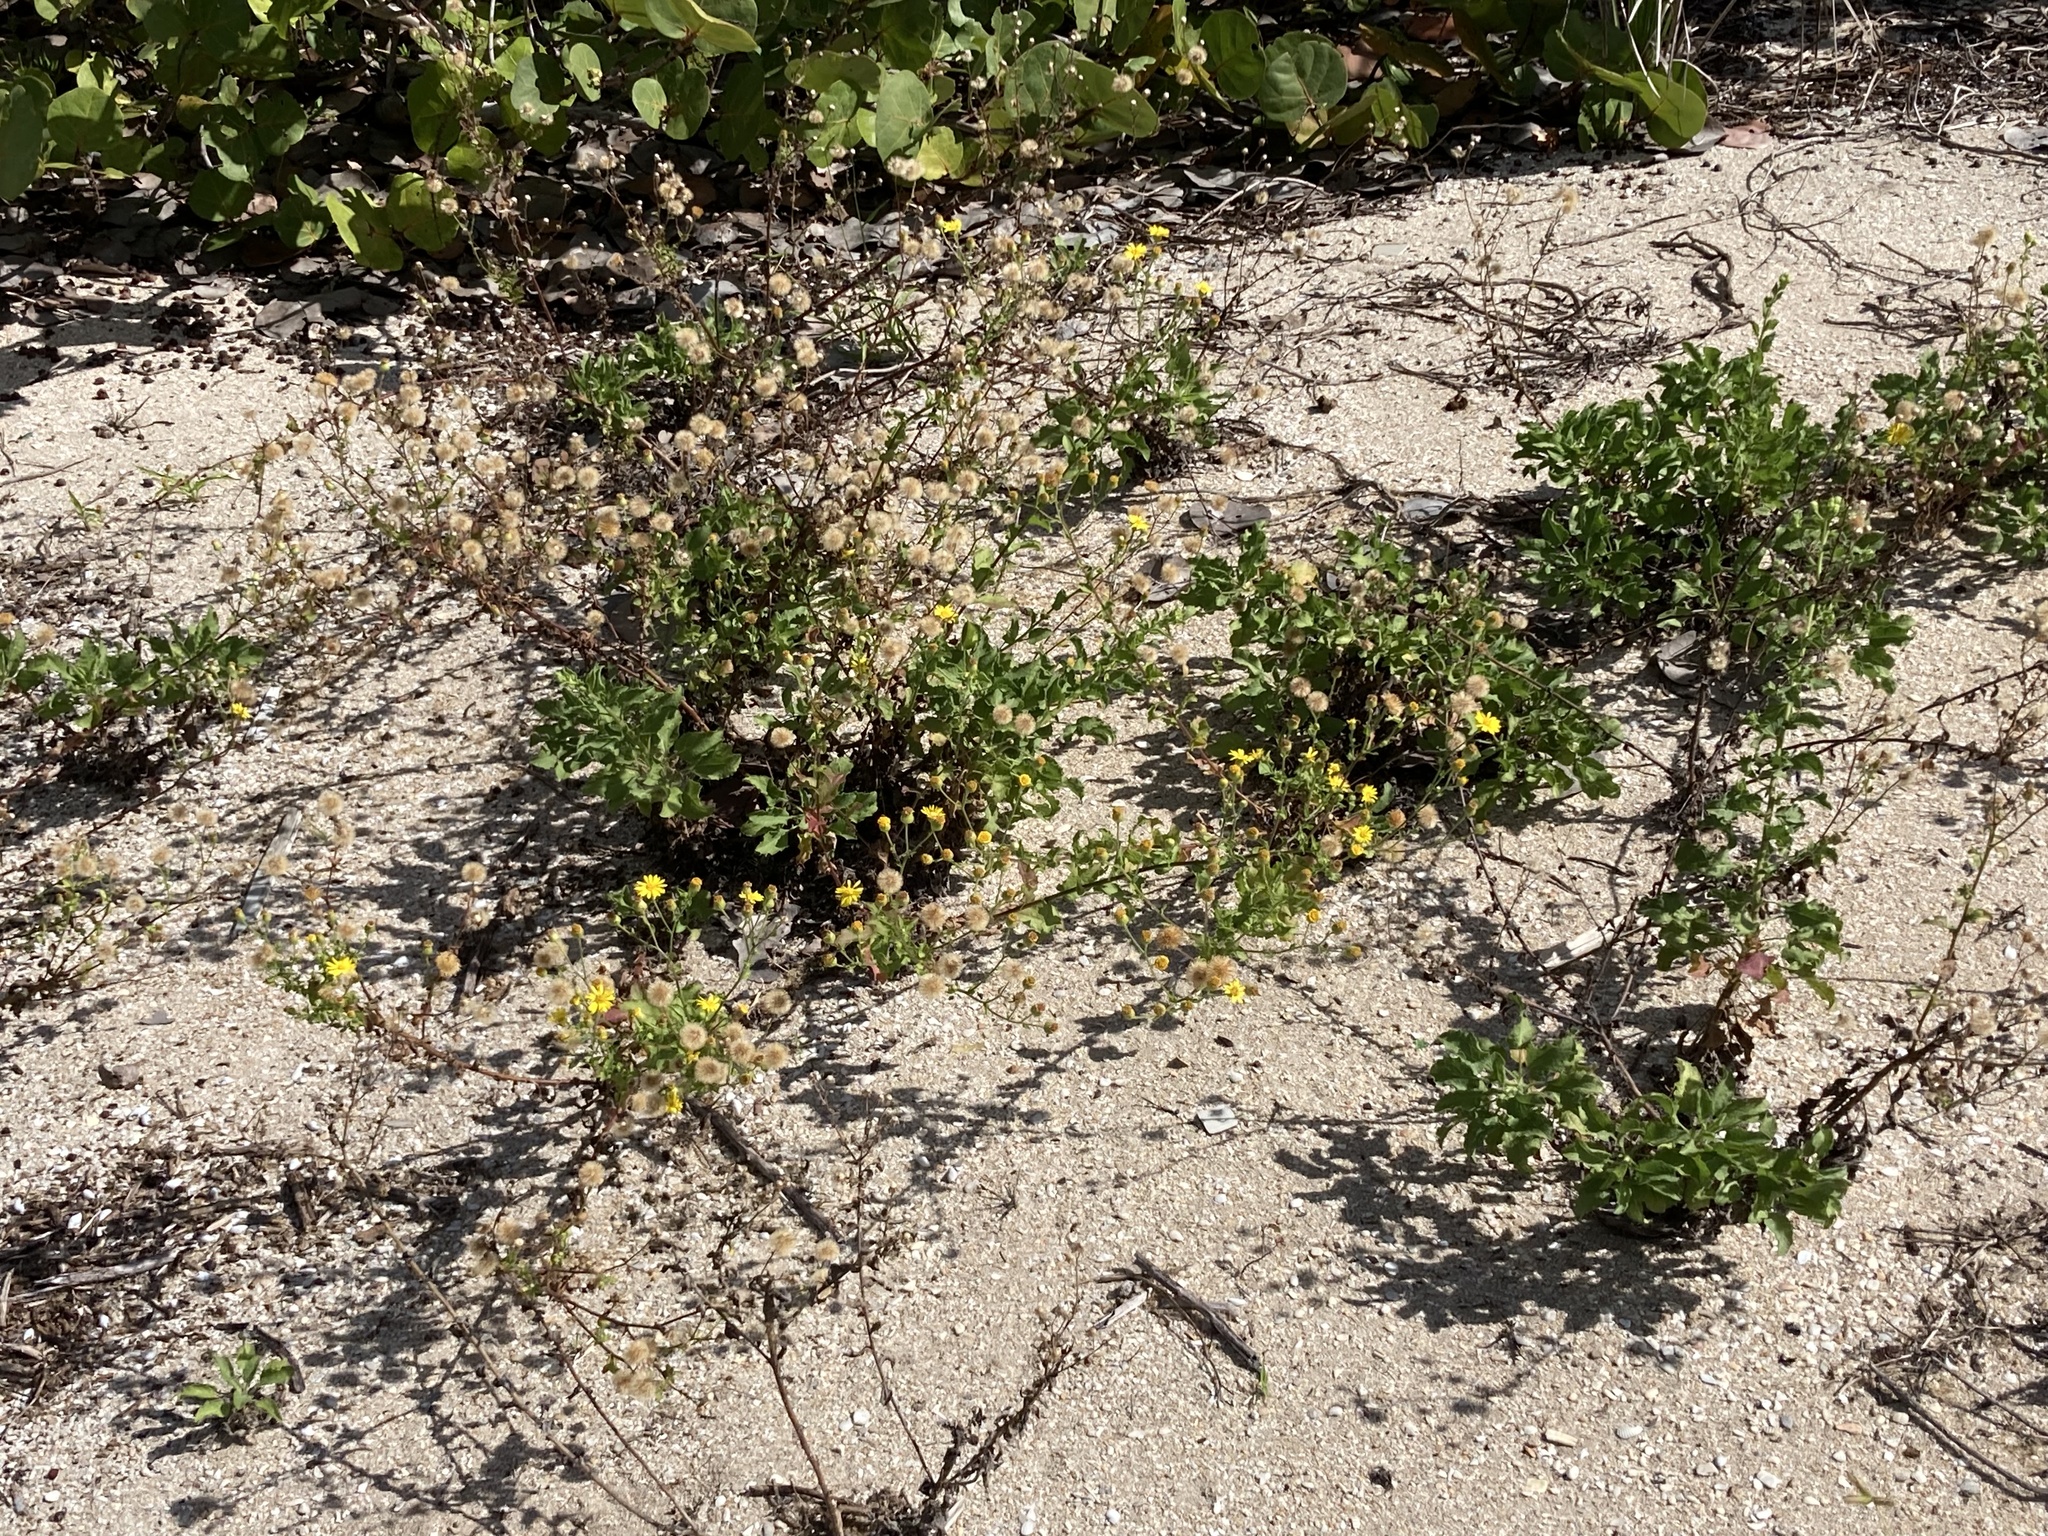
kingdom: Plantae
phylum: Tracheophyta
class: Magnoliopsida
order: Asterales
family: Asteraceae
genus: Heterotheca
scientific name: Heterotheca subaxillaris
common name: Camphorweed
